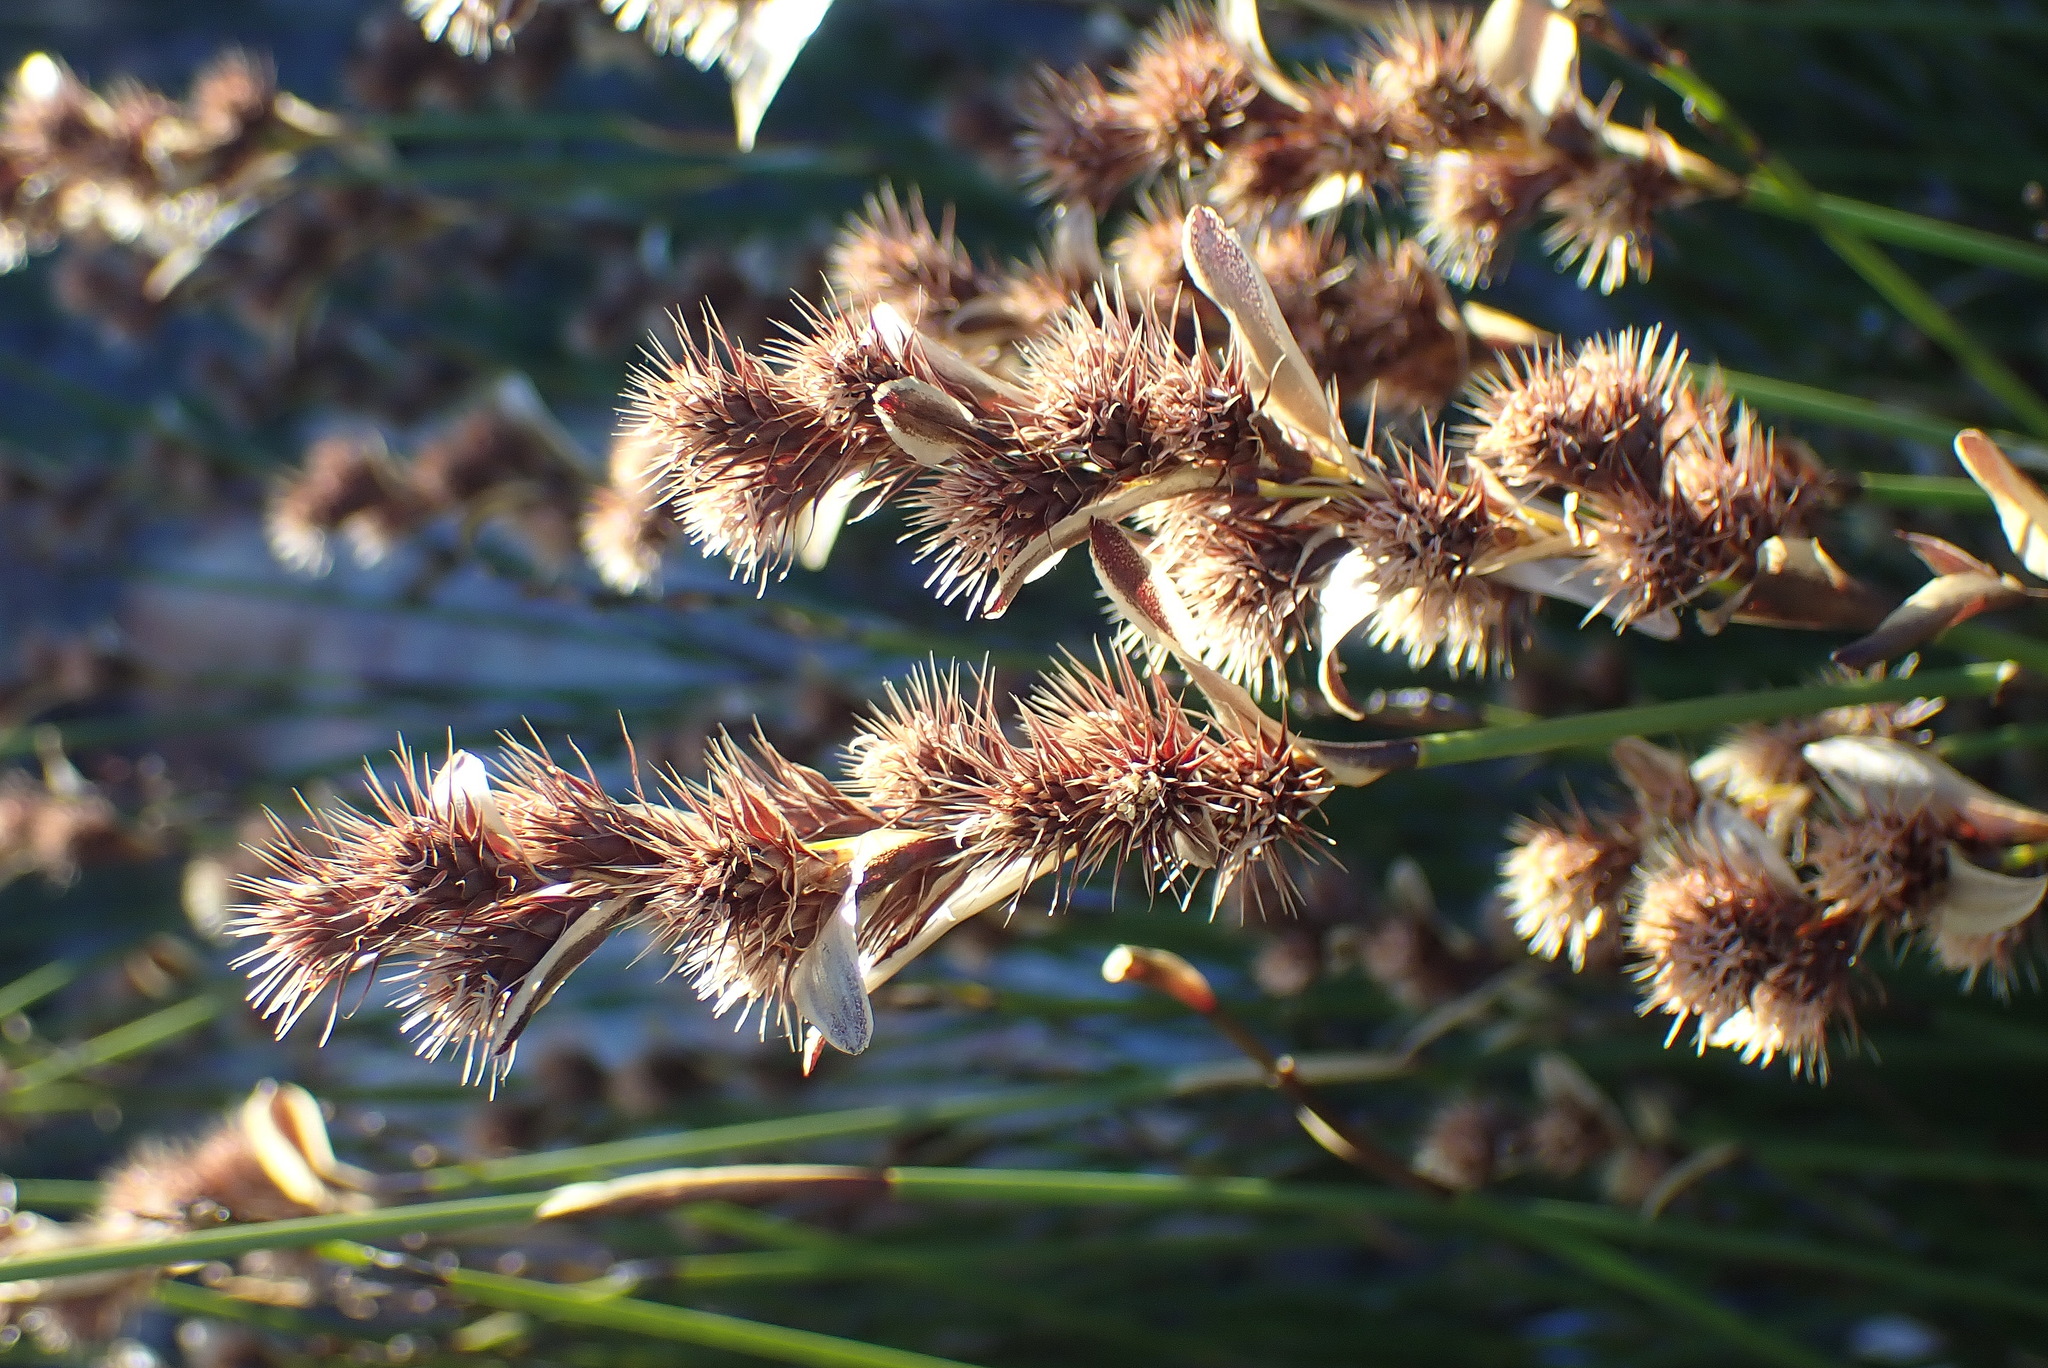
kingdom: Plantae
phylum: Tracheophyta
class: Liliopsida
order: Poales
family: Restionaceae
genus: Hypodiscus
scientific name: Hypodiscus aristatus
